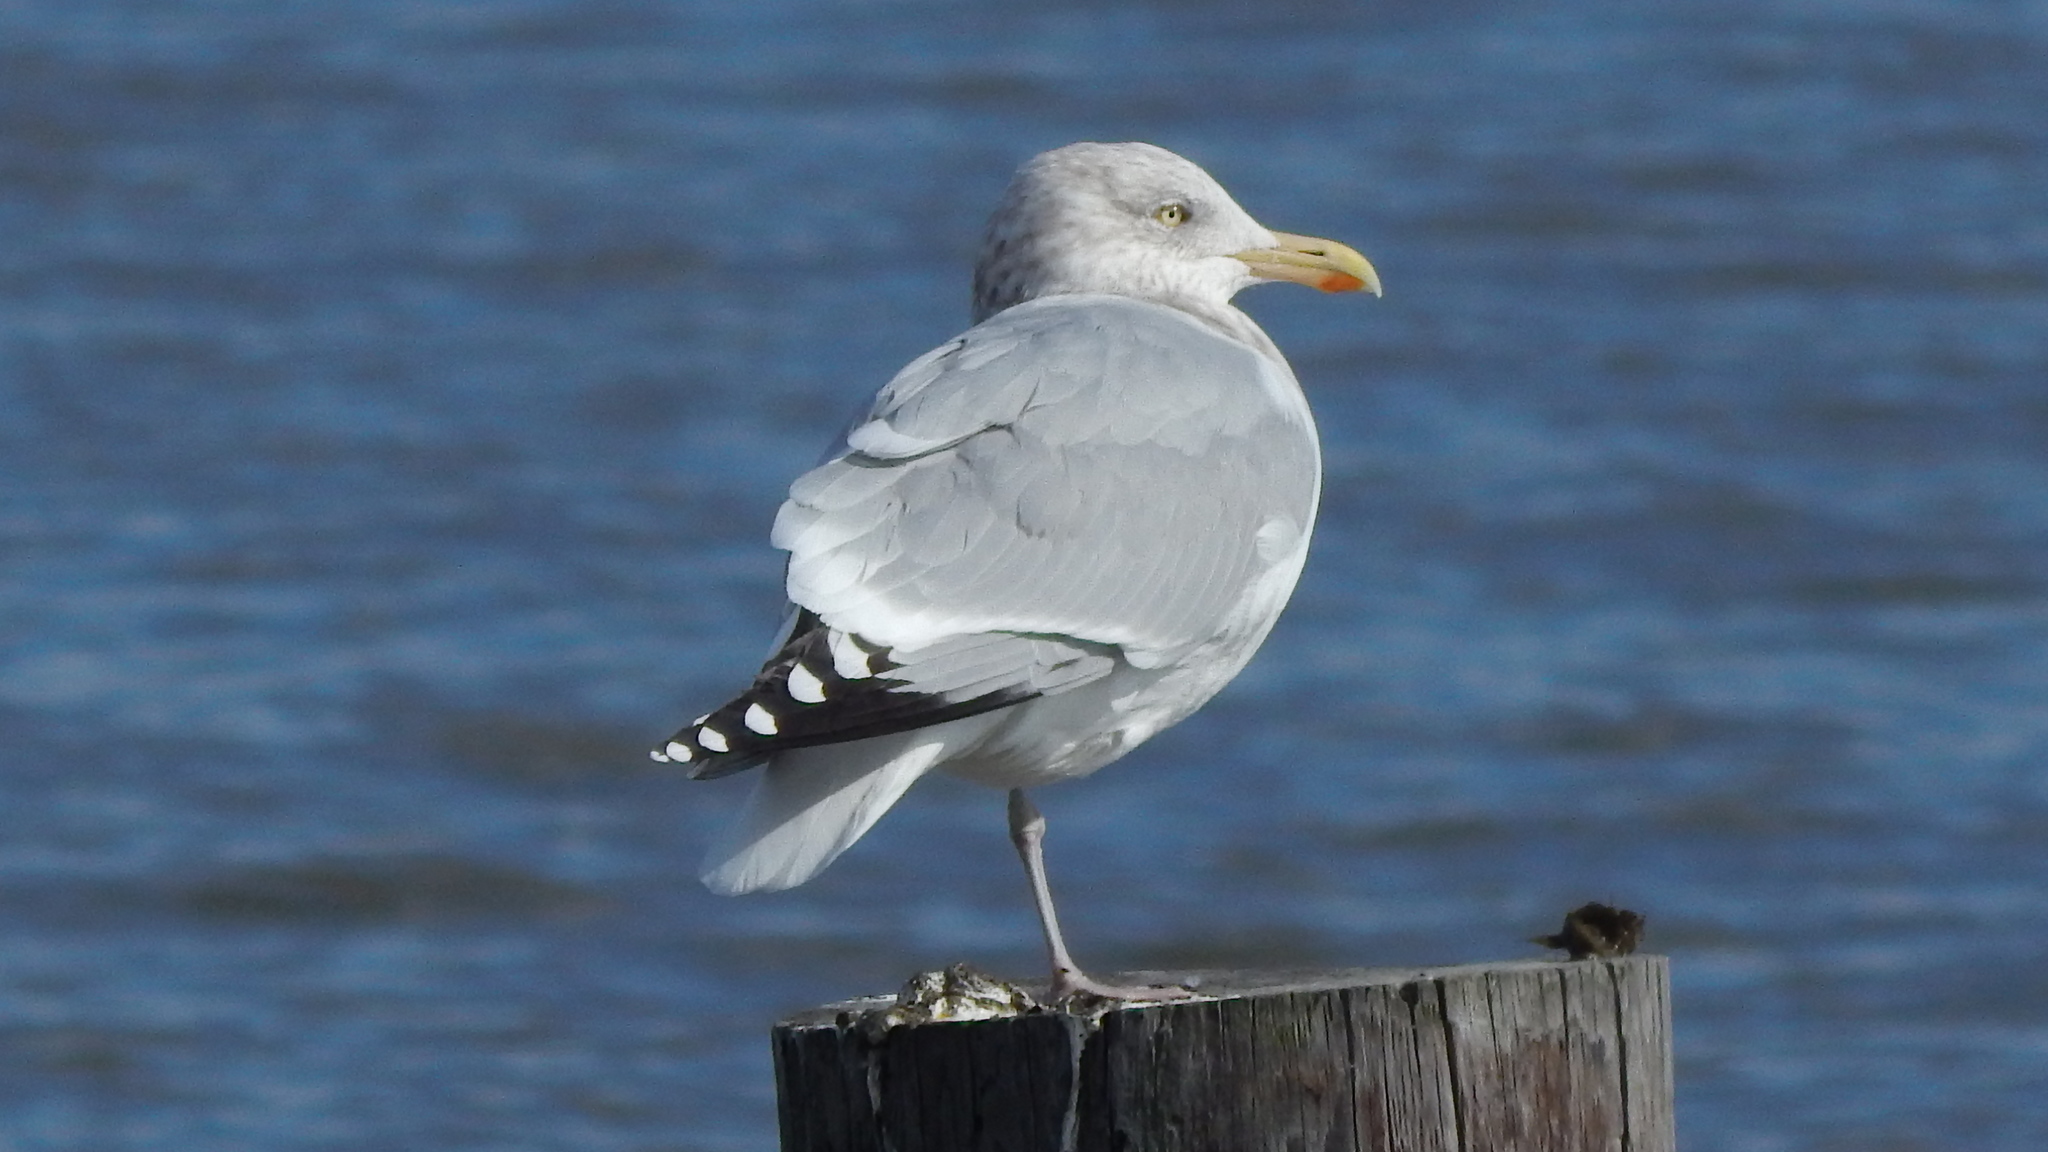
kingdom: Animalia
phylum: Chordata
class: Aves
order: Charadriiformes
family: Laridae
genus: Larus
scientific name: Larus argentatus
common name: Herring gull
